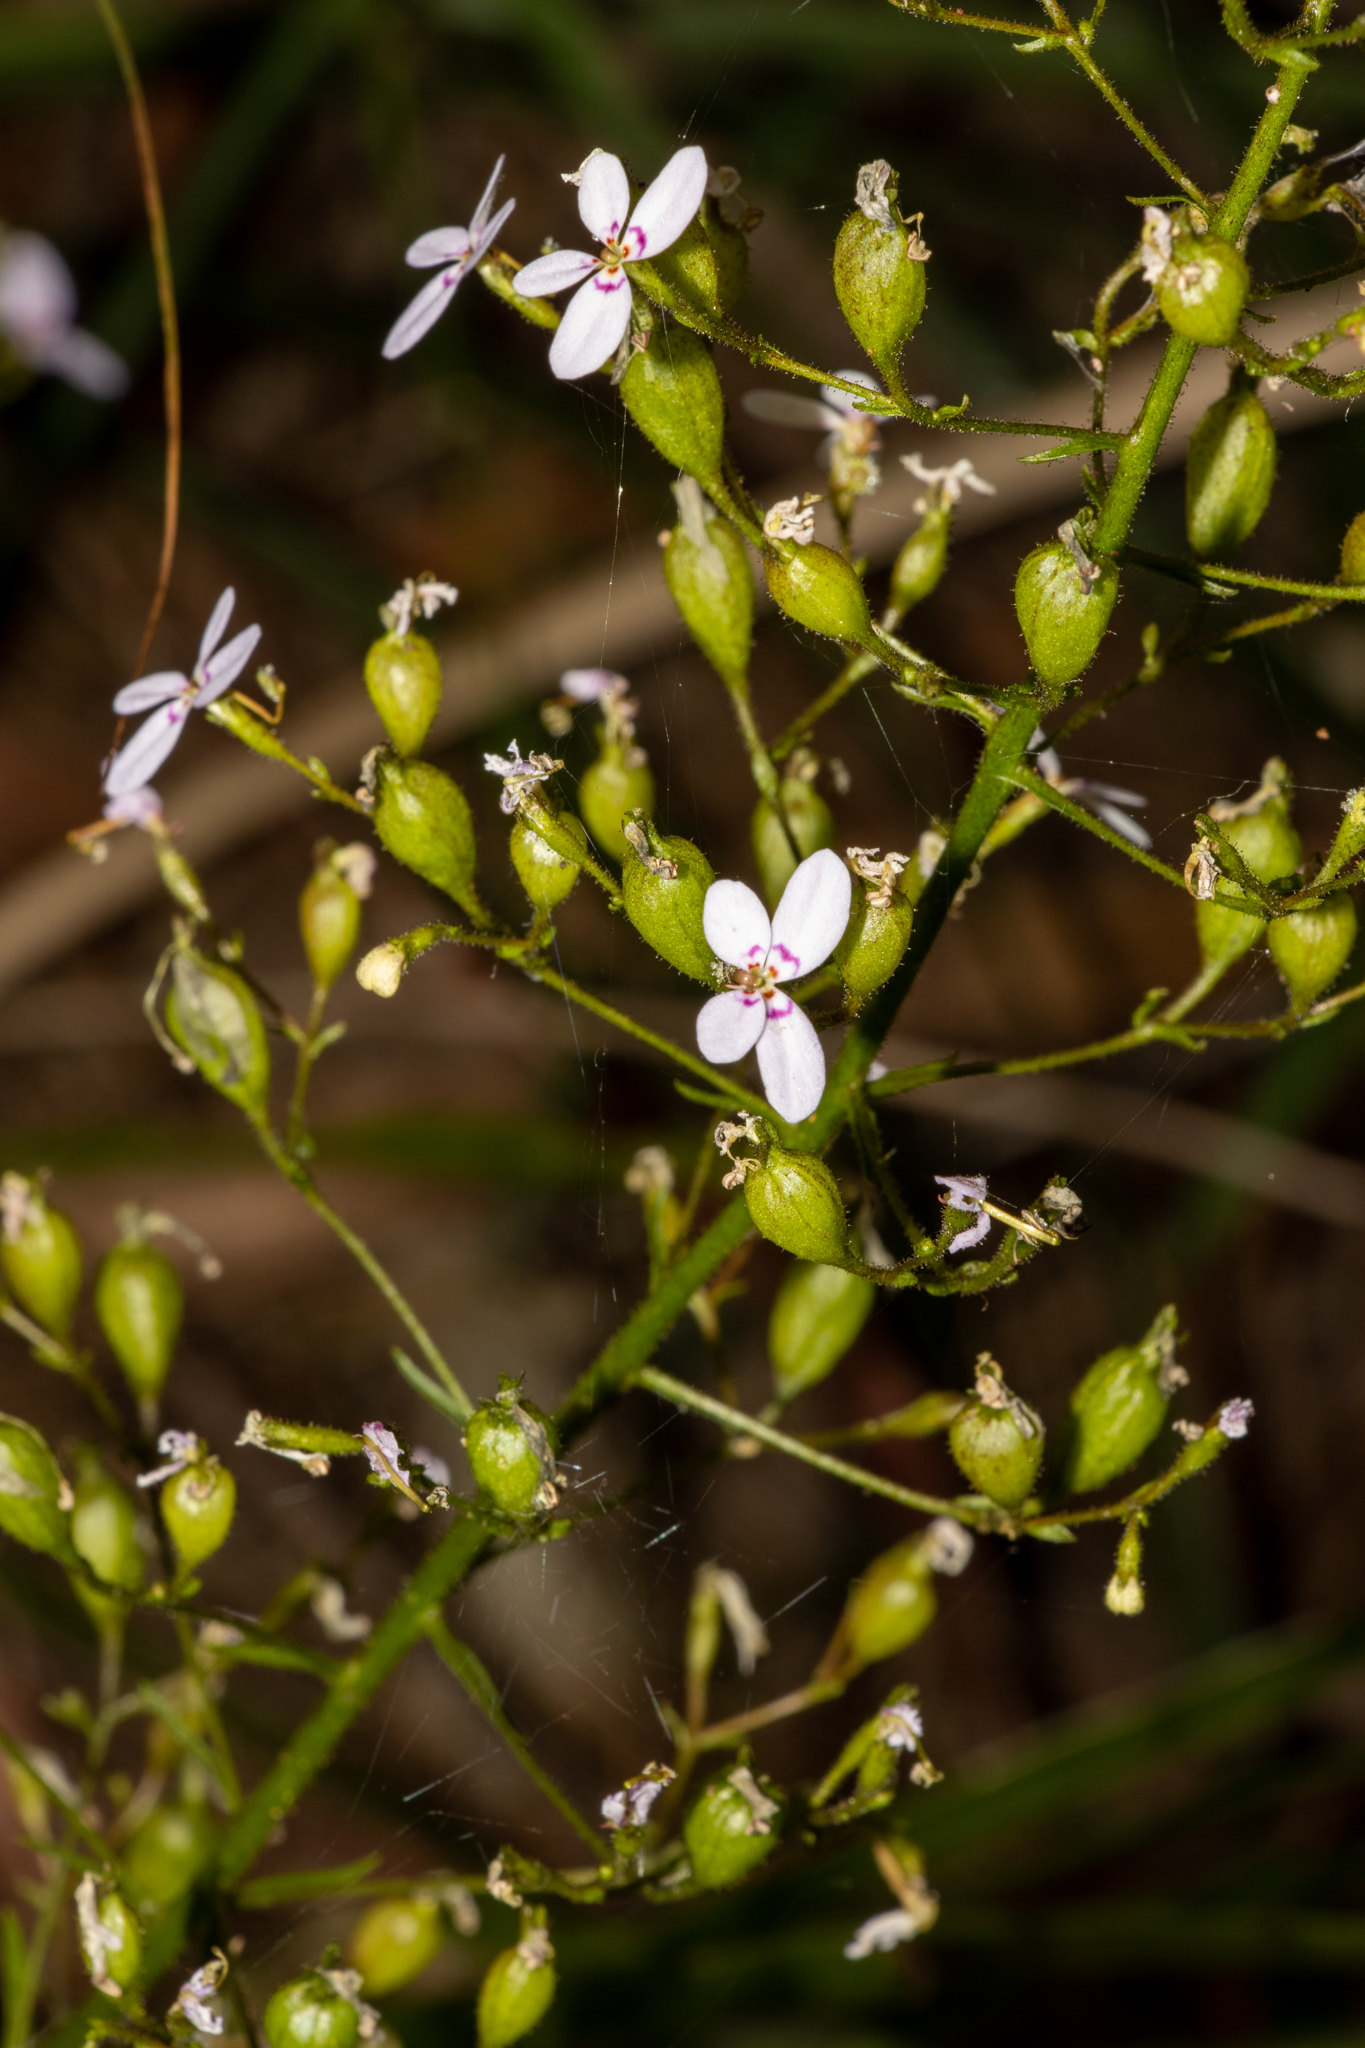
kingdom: Plantae
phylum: Tracheophyta
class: Magnoliopsida
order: Asterales
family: Stylidiaceae
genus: Stylidium
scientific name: Stylidium laricifolium
